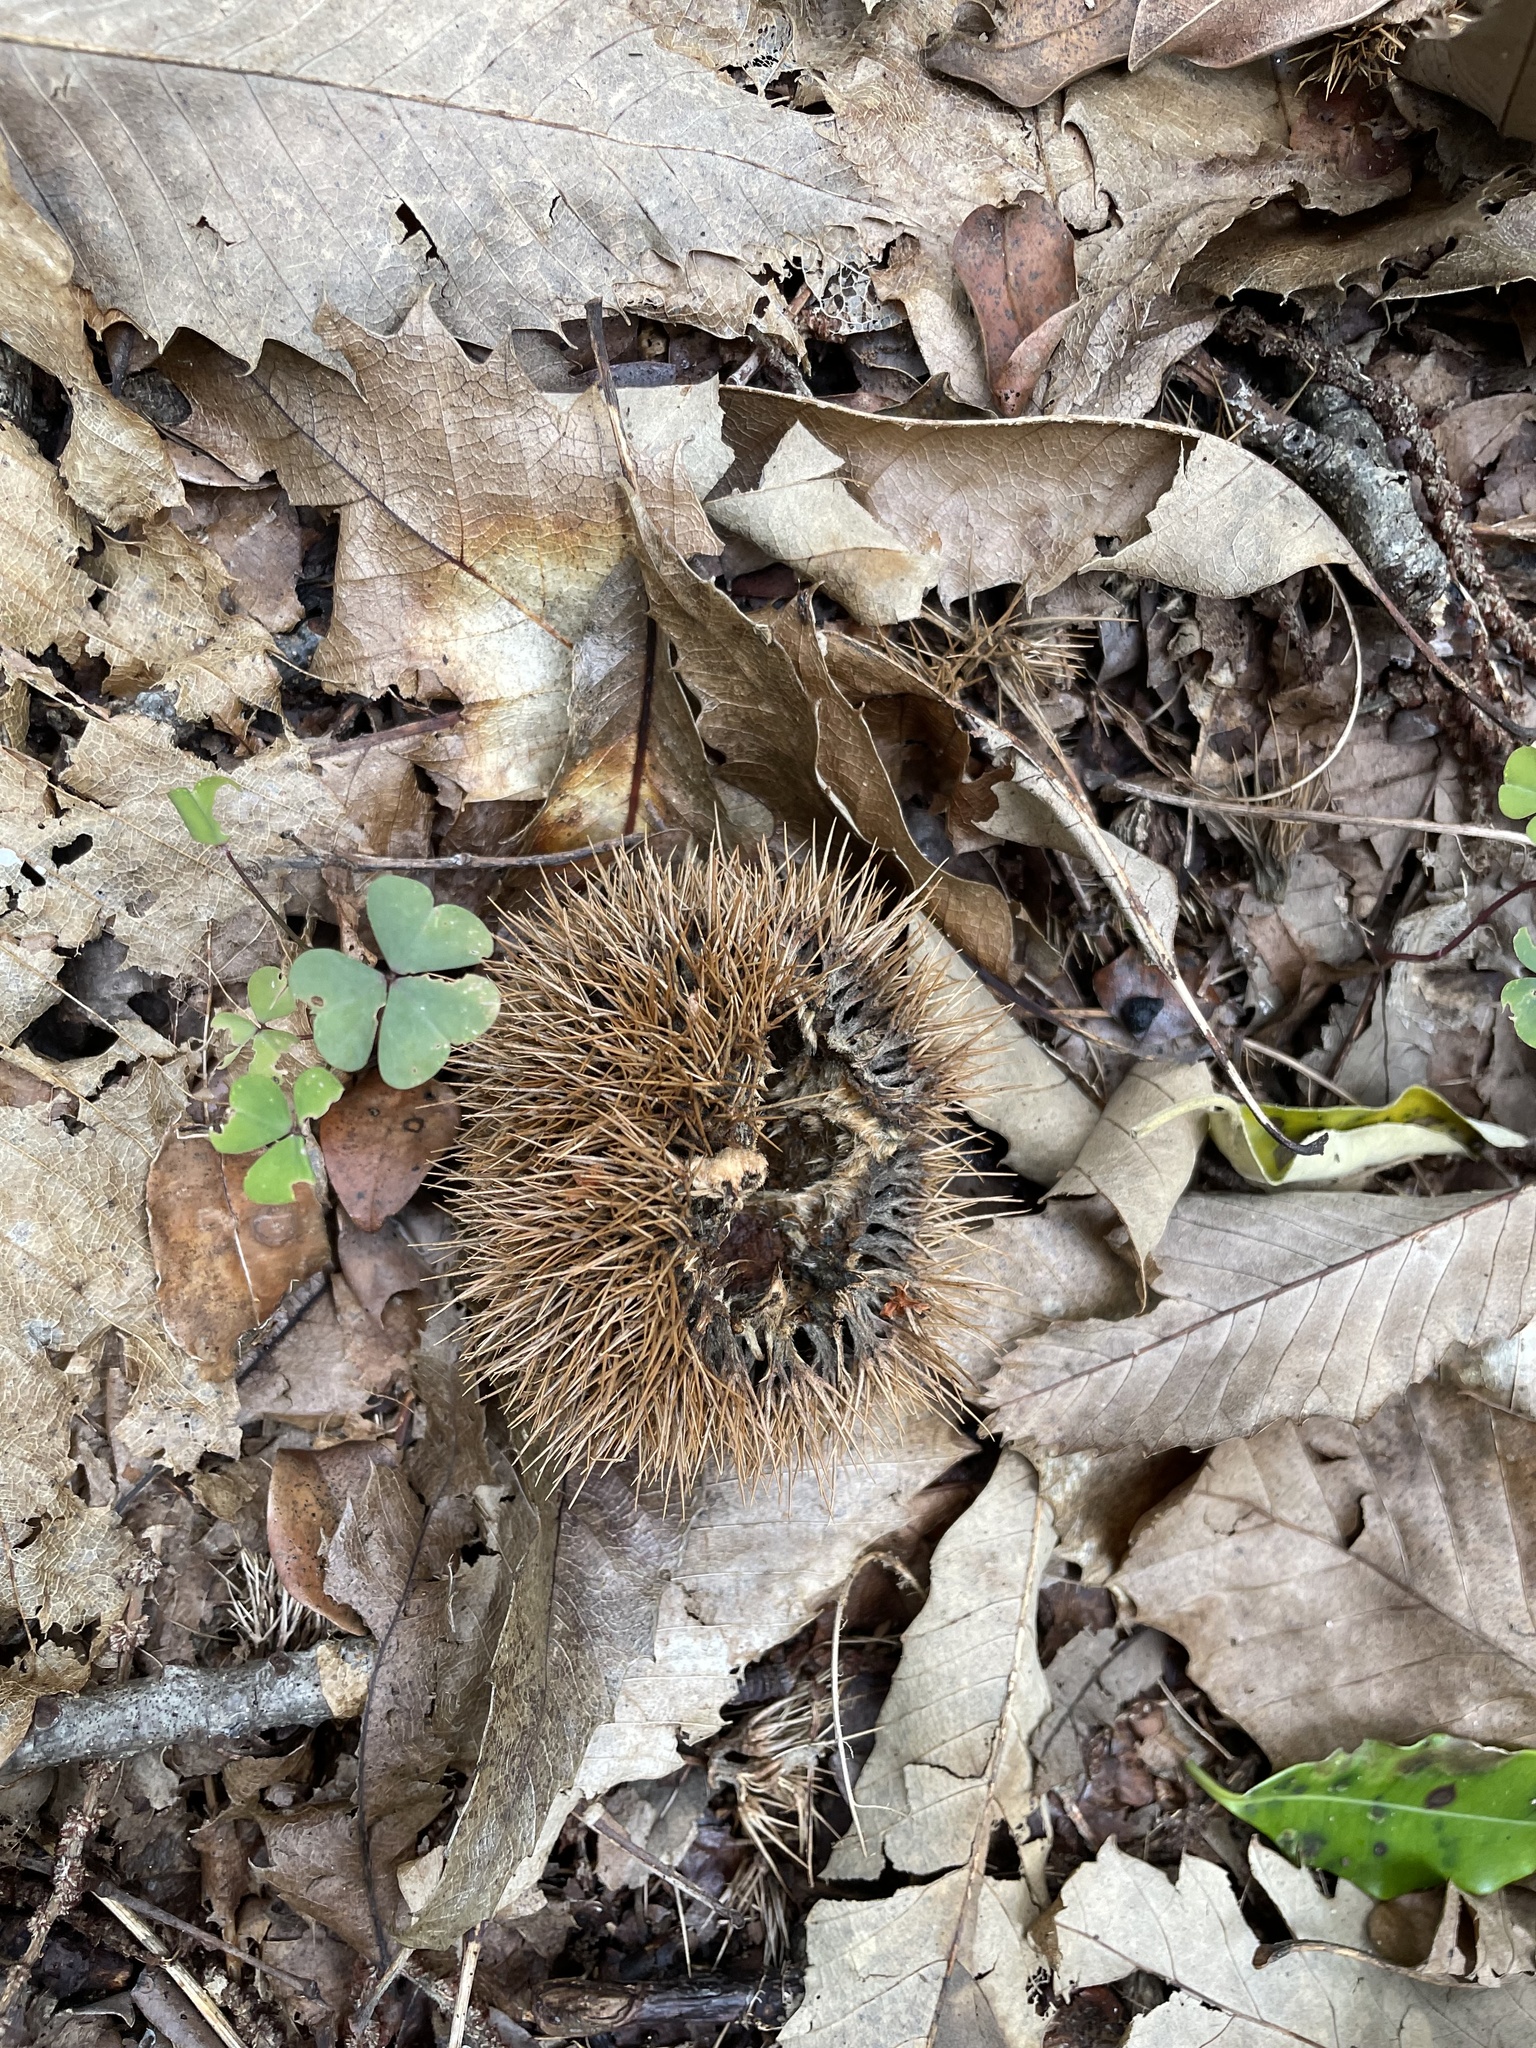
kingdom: Plantae
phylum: Tracheophyta
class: Magnoliopsida
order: Fagales
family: Fagaceae
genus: Castanea
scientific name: Castanea sativa
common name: Sweet chestnut
